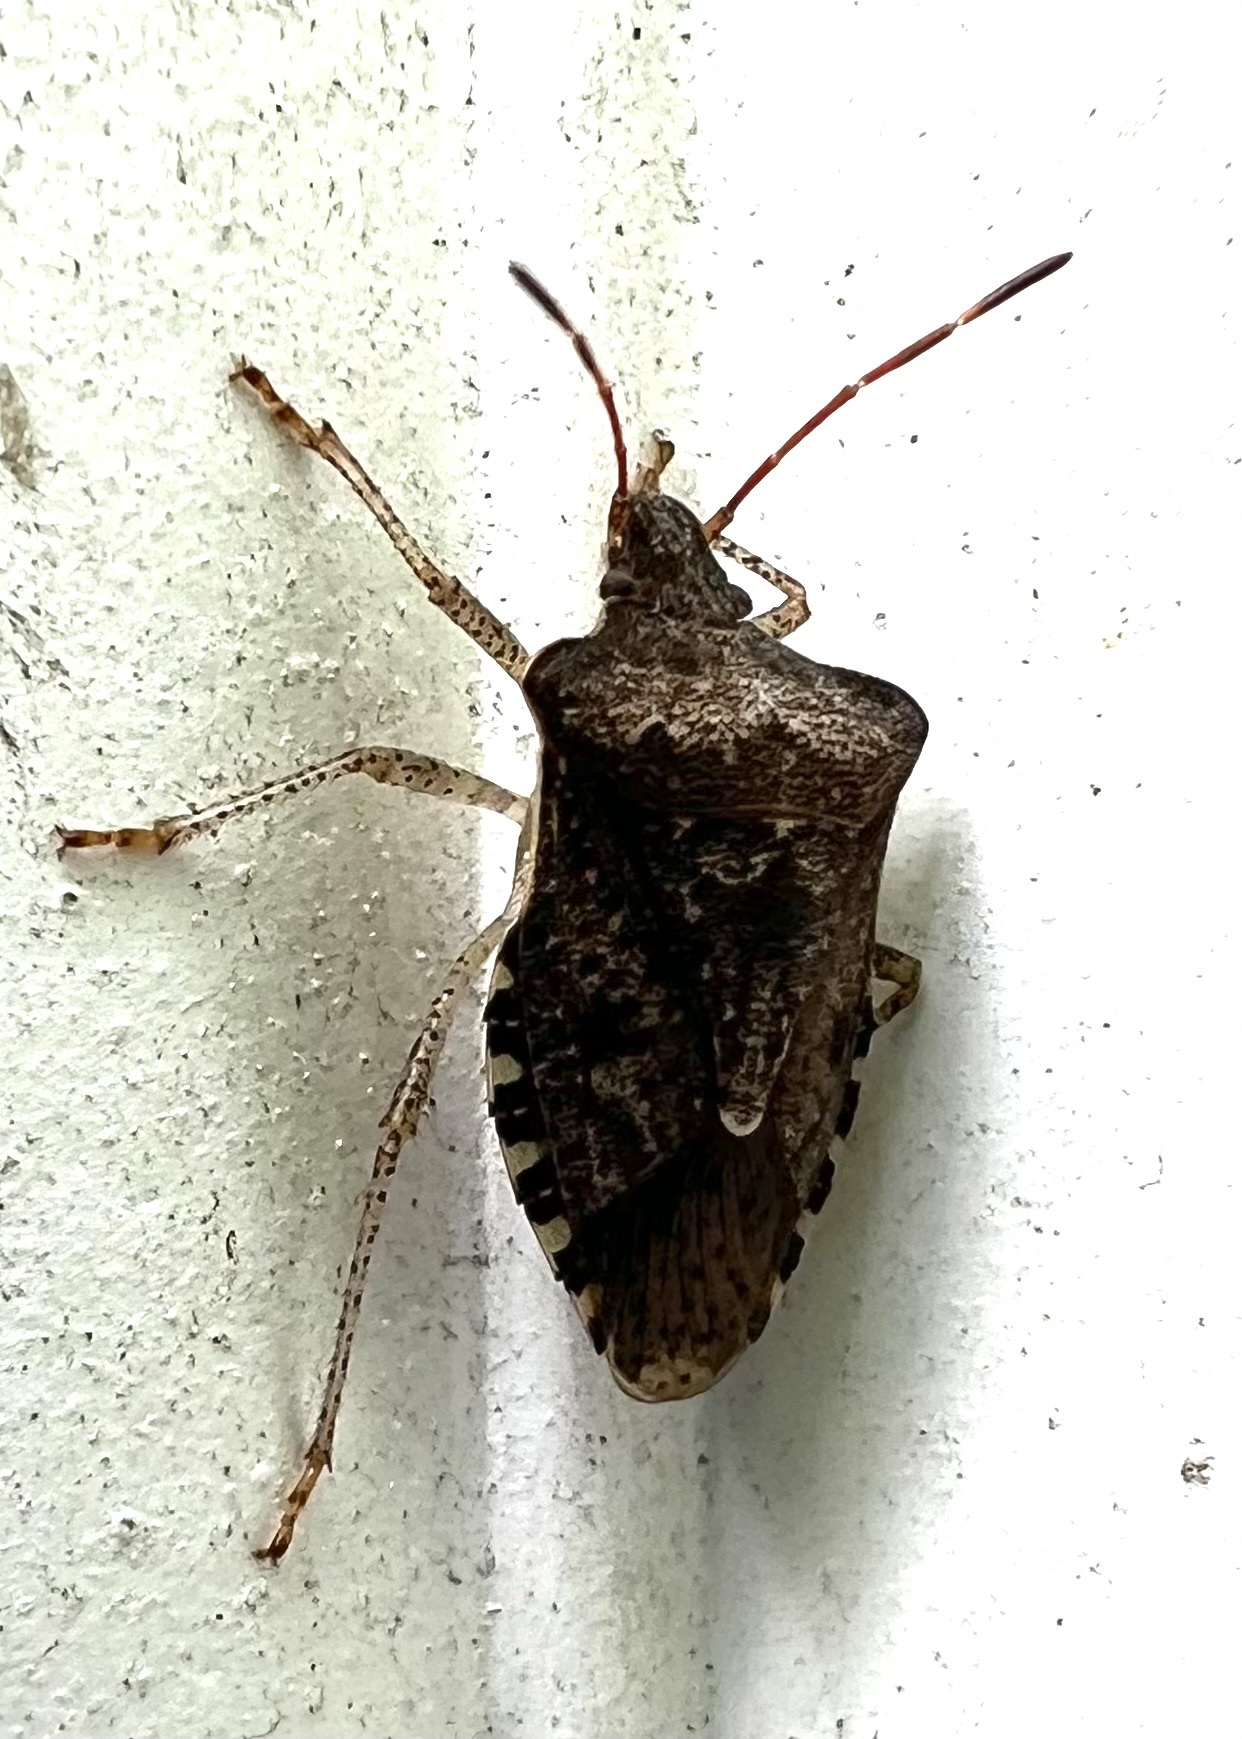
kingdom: Animalia
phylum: Arthropoda
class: Insecta
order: Hemiptera
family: Pentatomidae
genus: Halyomorpha
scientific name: Halyomorpha halys
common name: Brown marmorated stink bug
